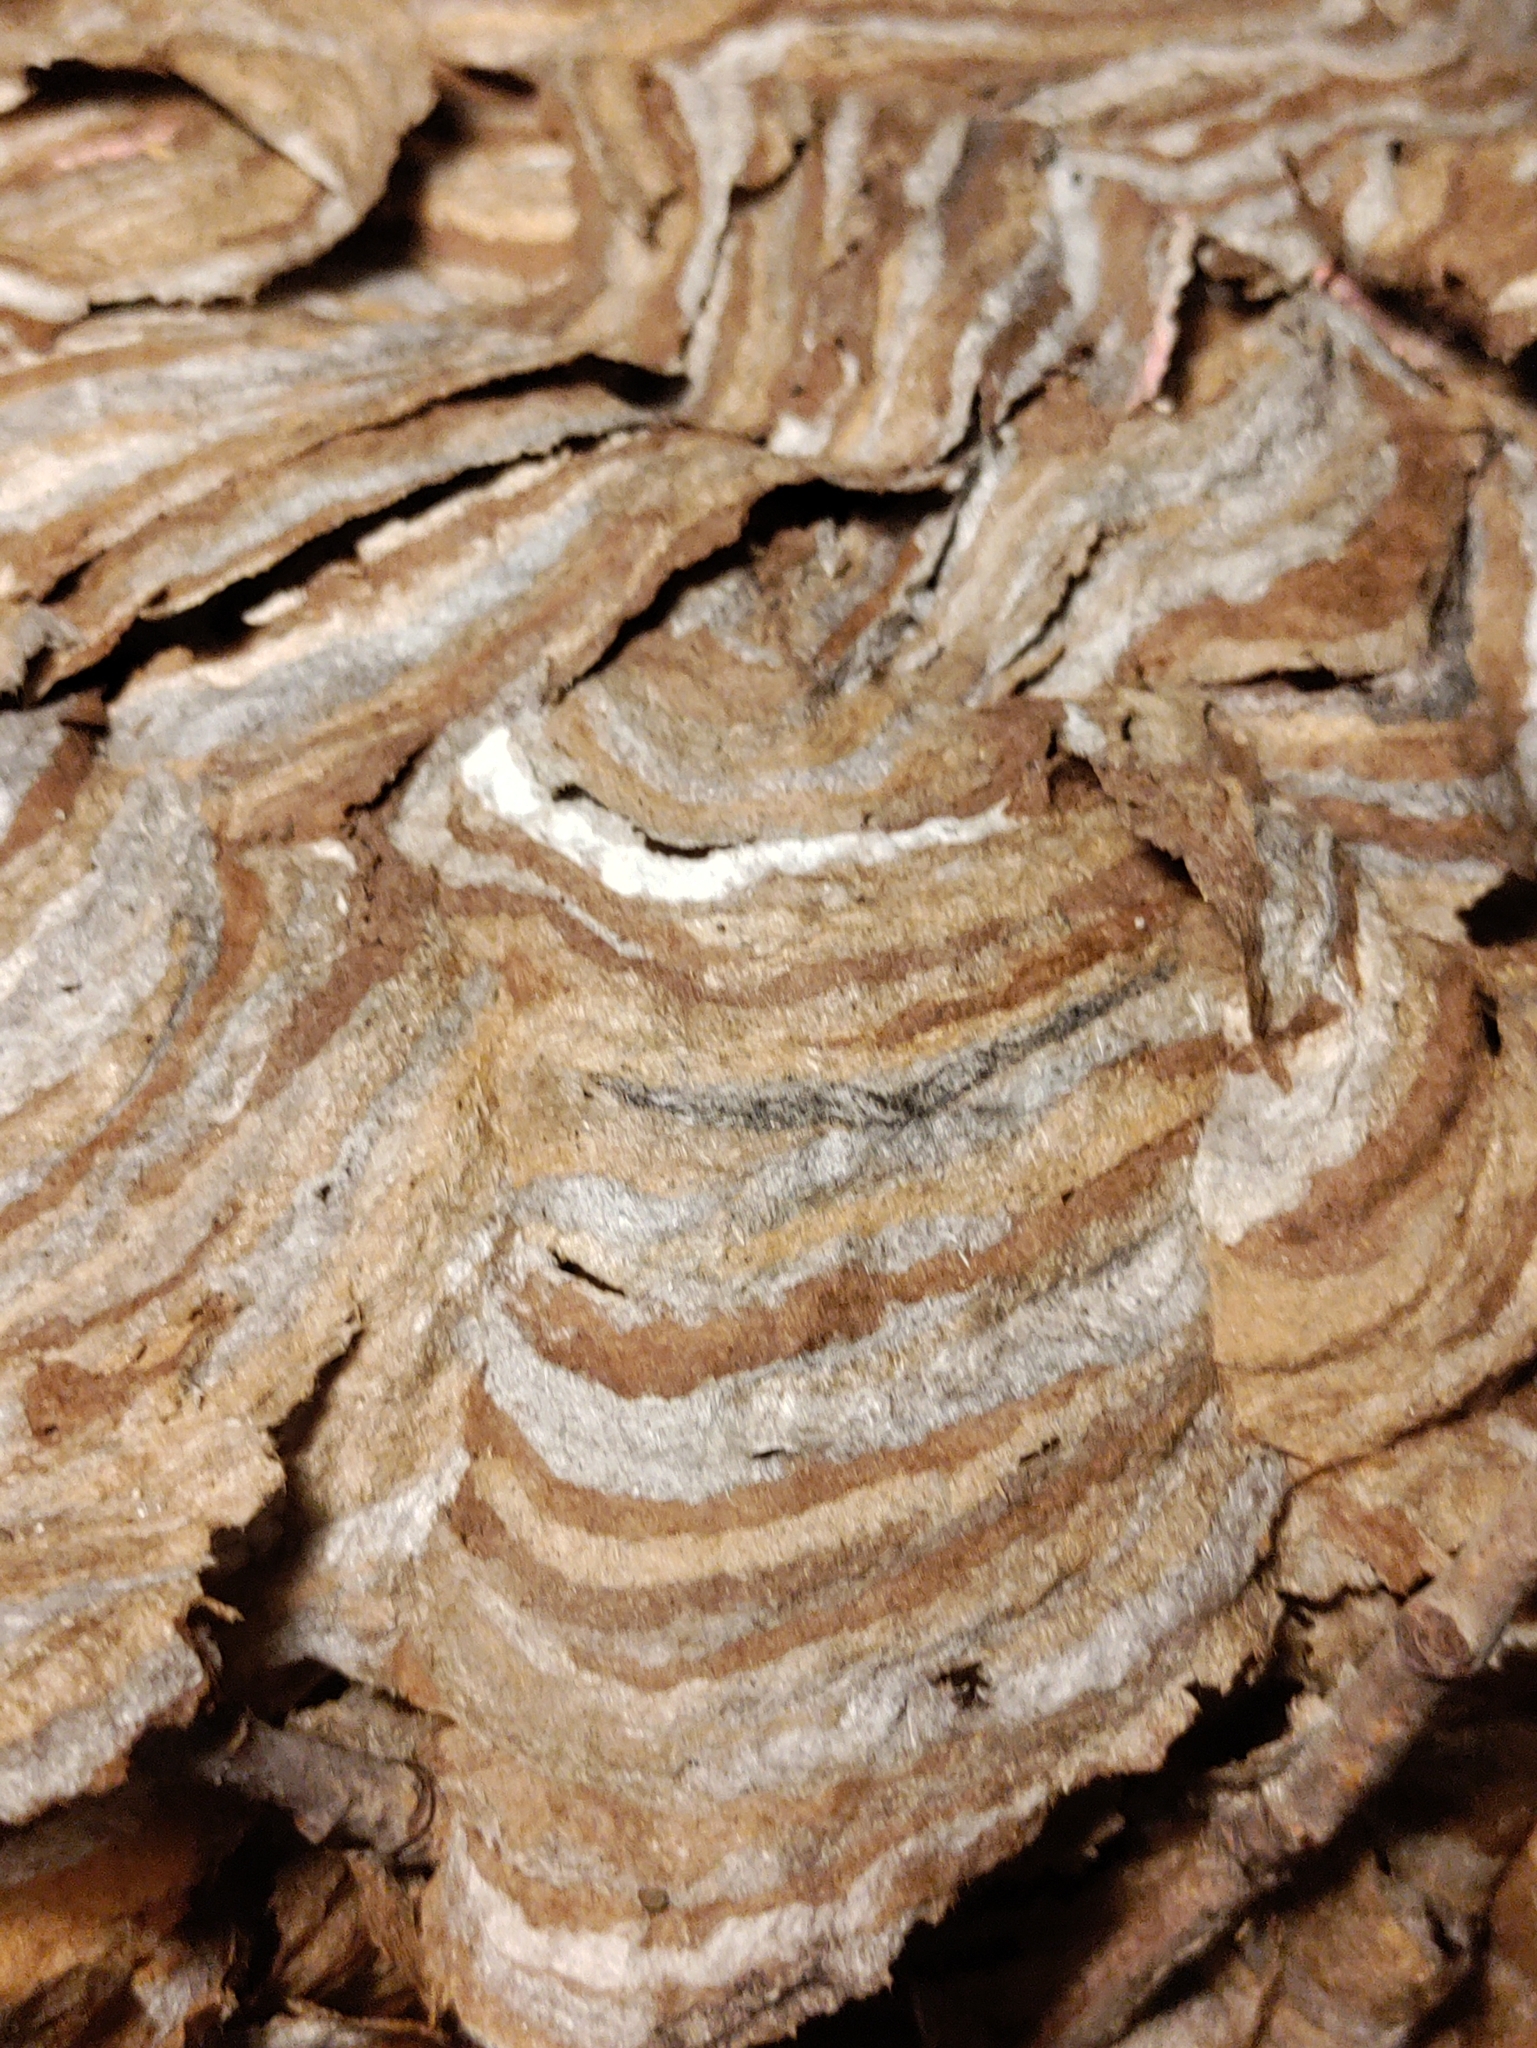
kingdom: Animalia
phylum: Arthropoda
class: Insecta
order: Hymenoptera
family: Vespidae
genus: Dolichovespula
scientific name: Dolichovespula maculata
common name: Bald-faced hornet
